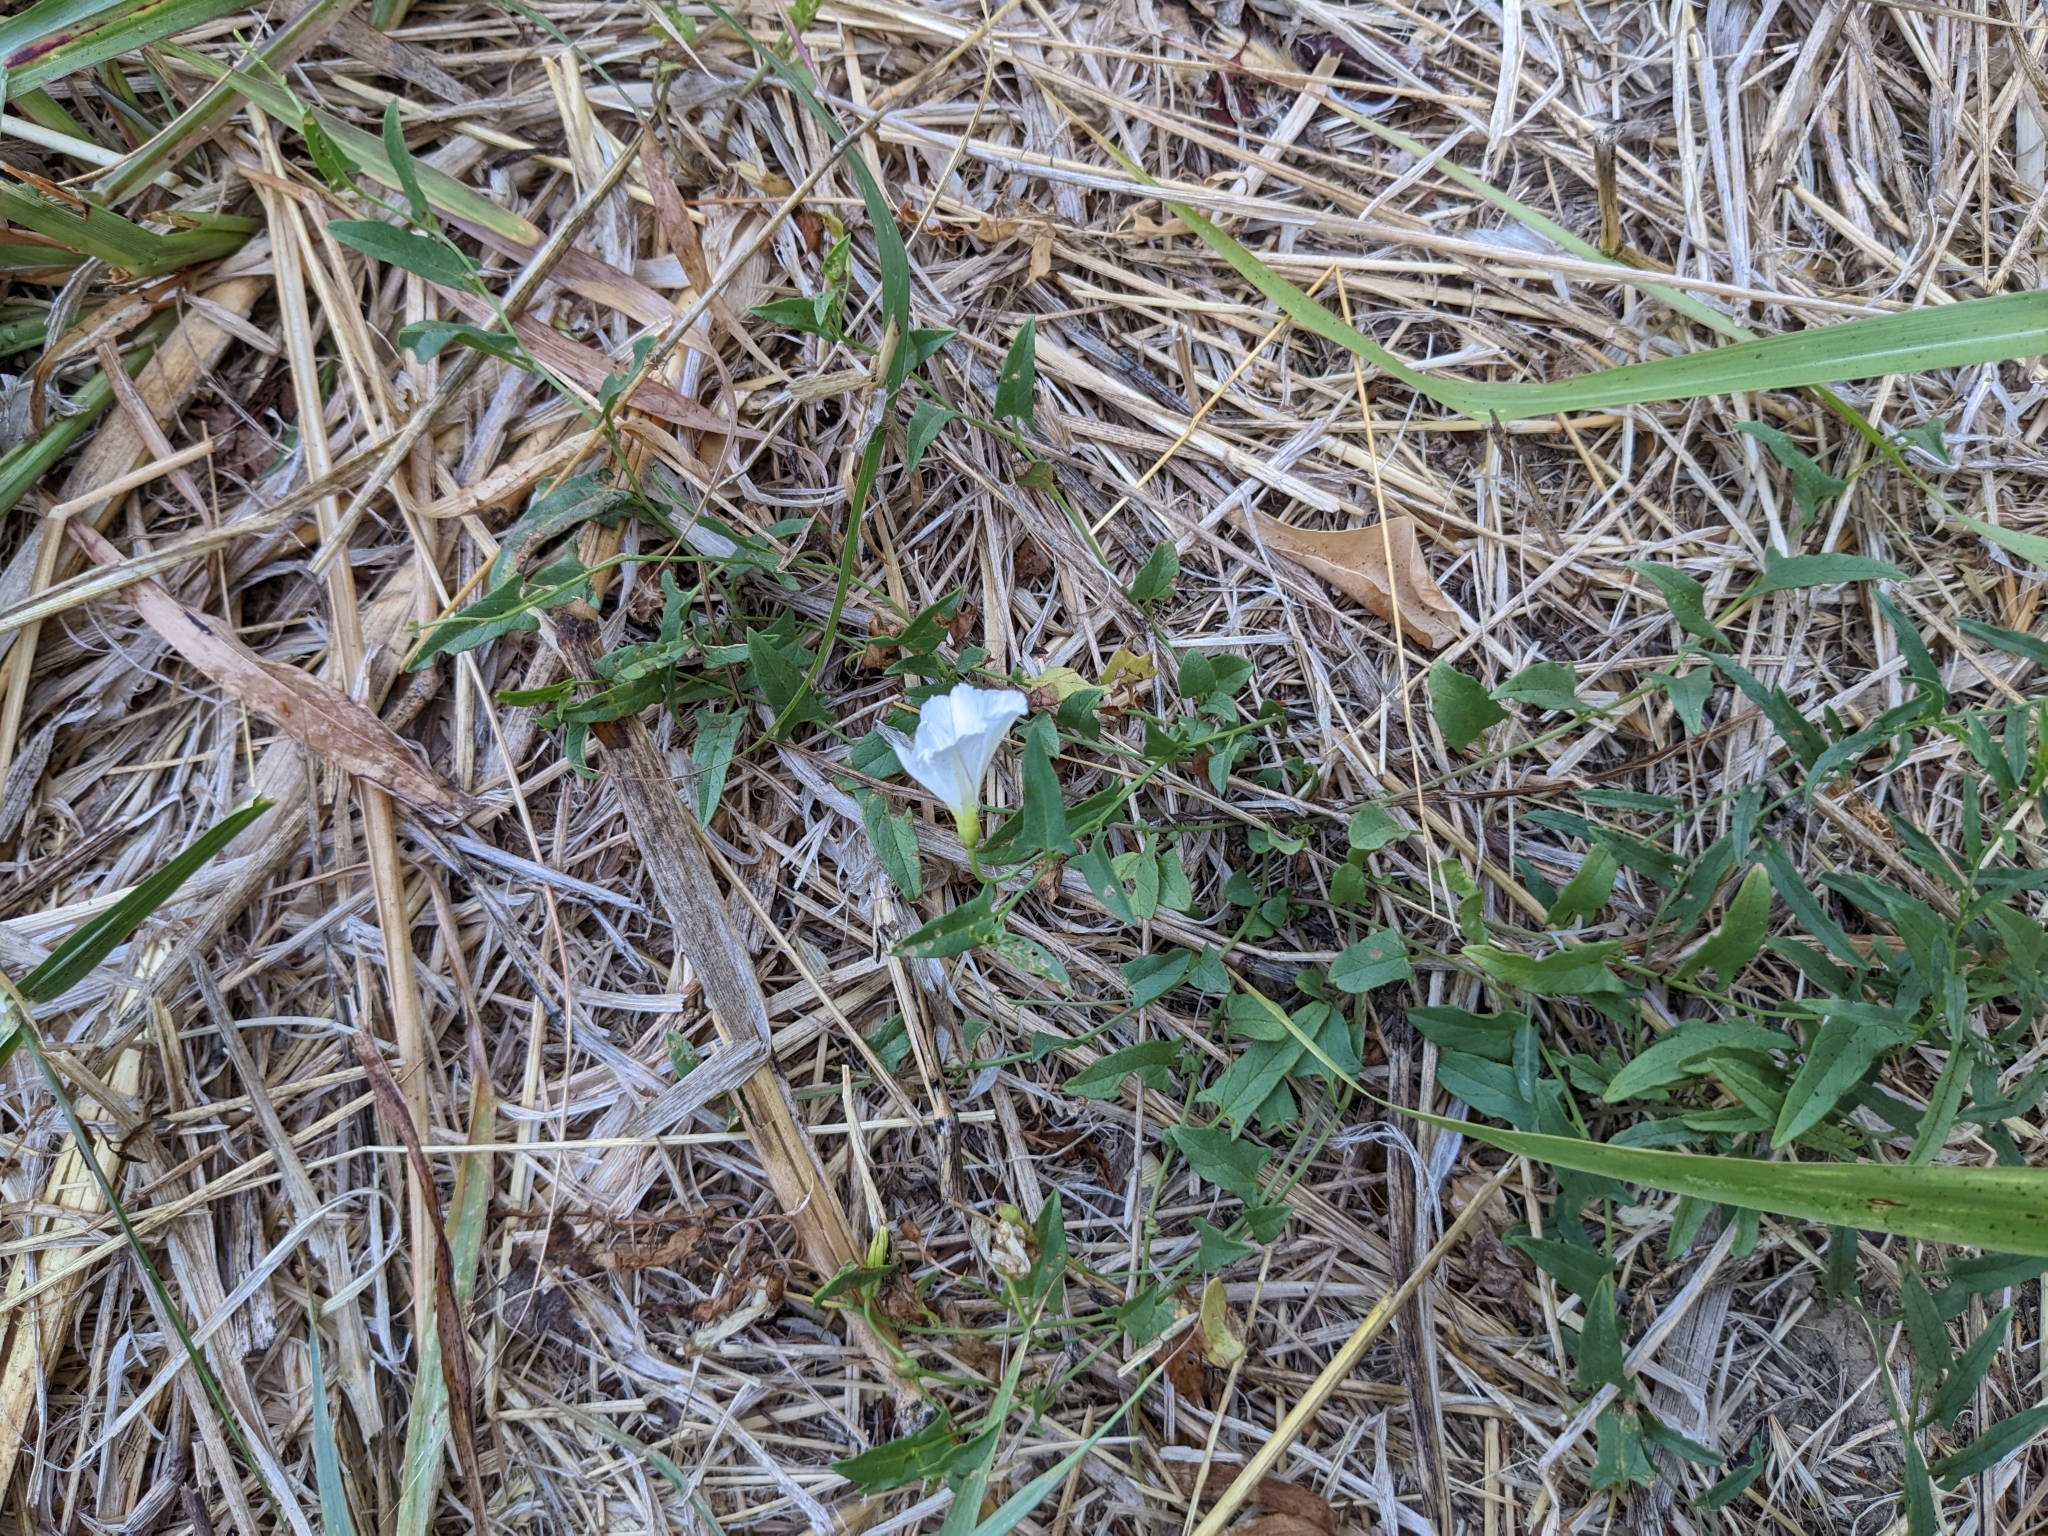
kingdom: Plantae
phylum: Tracheophyta
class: Magnoliopsida
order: Solanales
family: Convolvulaceae
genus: Convolvulus
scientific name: Convolvulus arvensis
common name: Field bindweed
